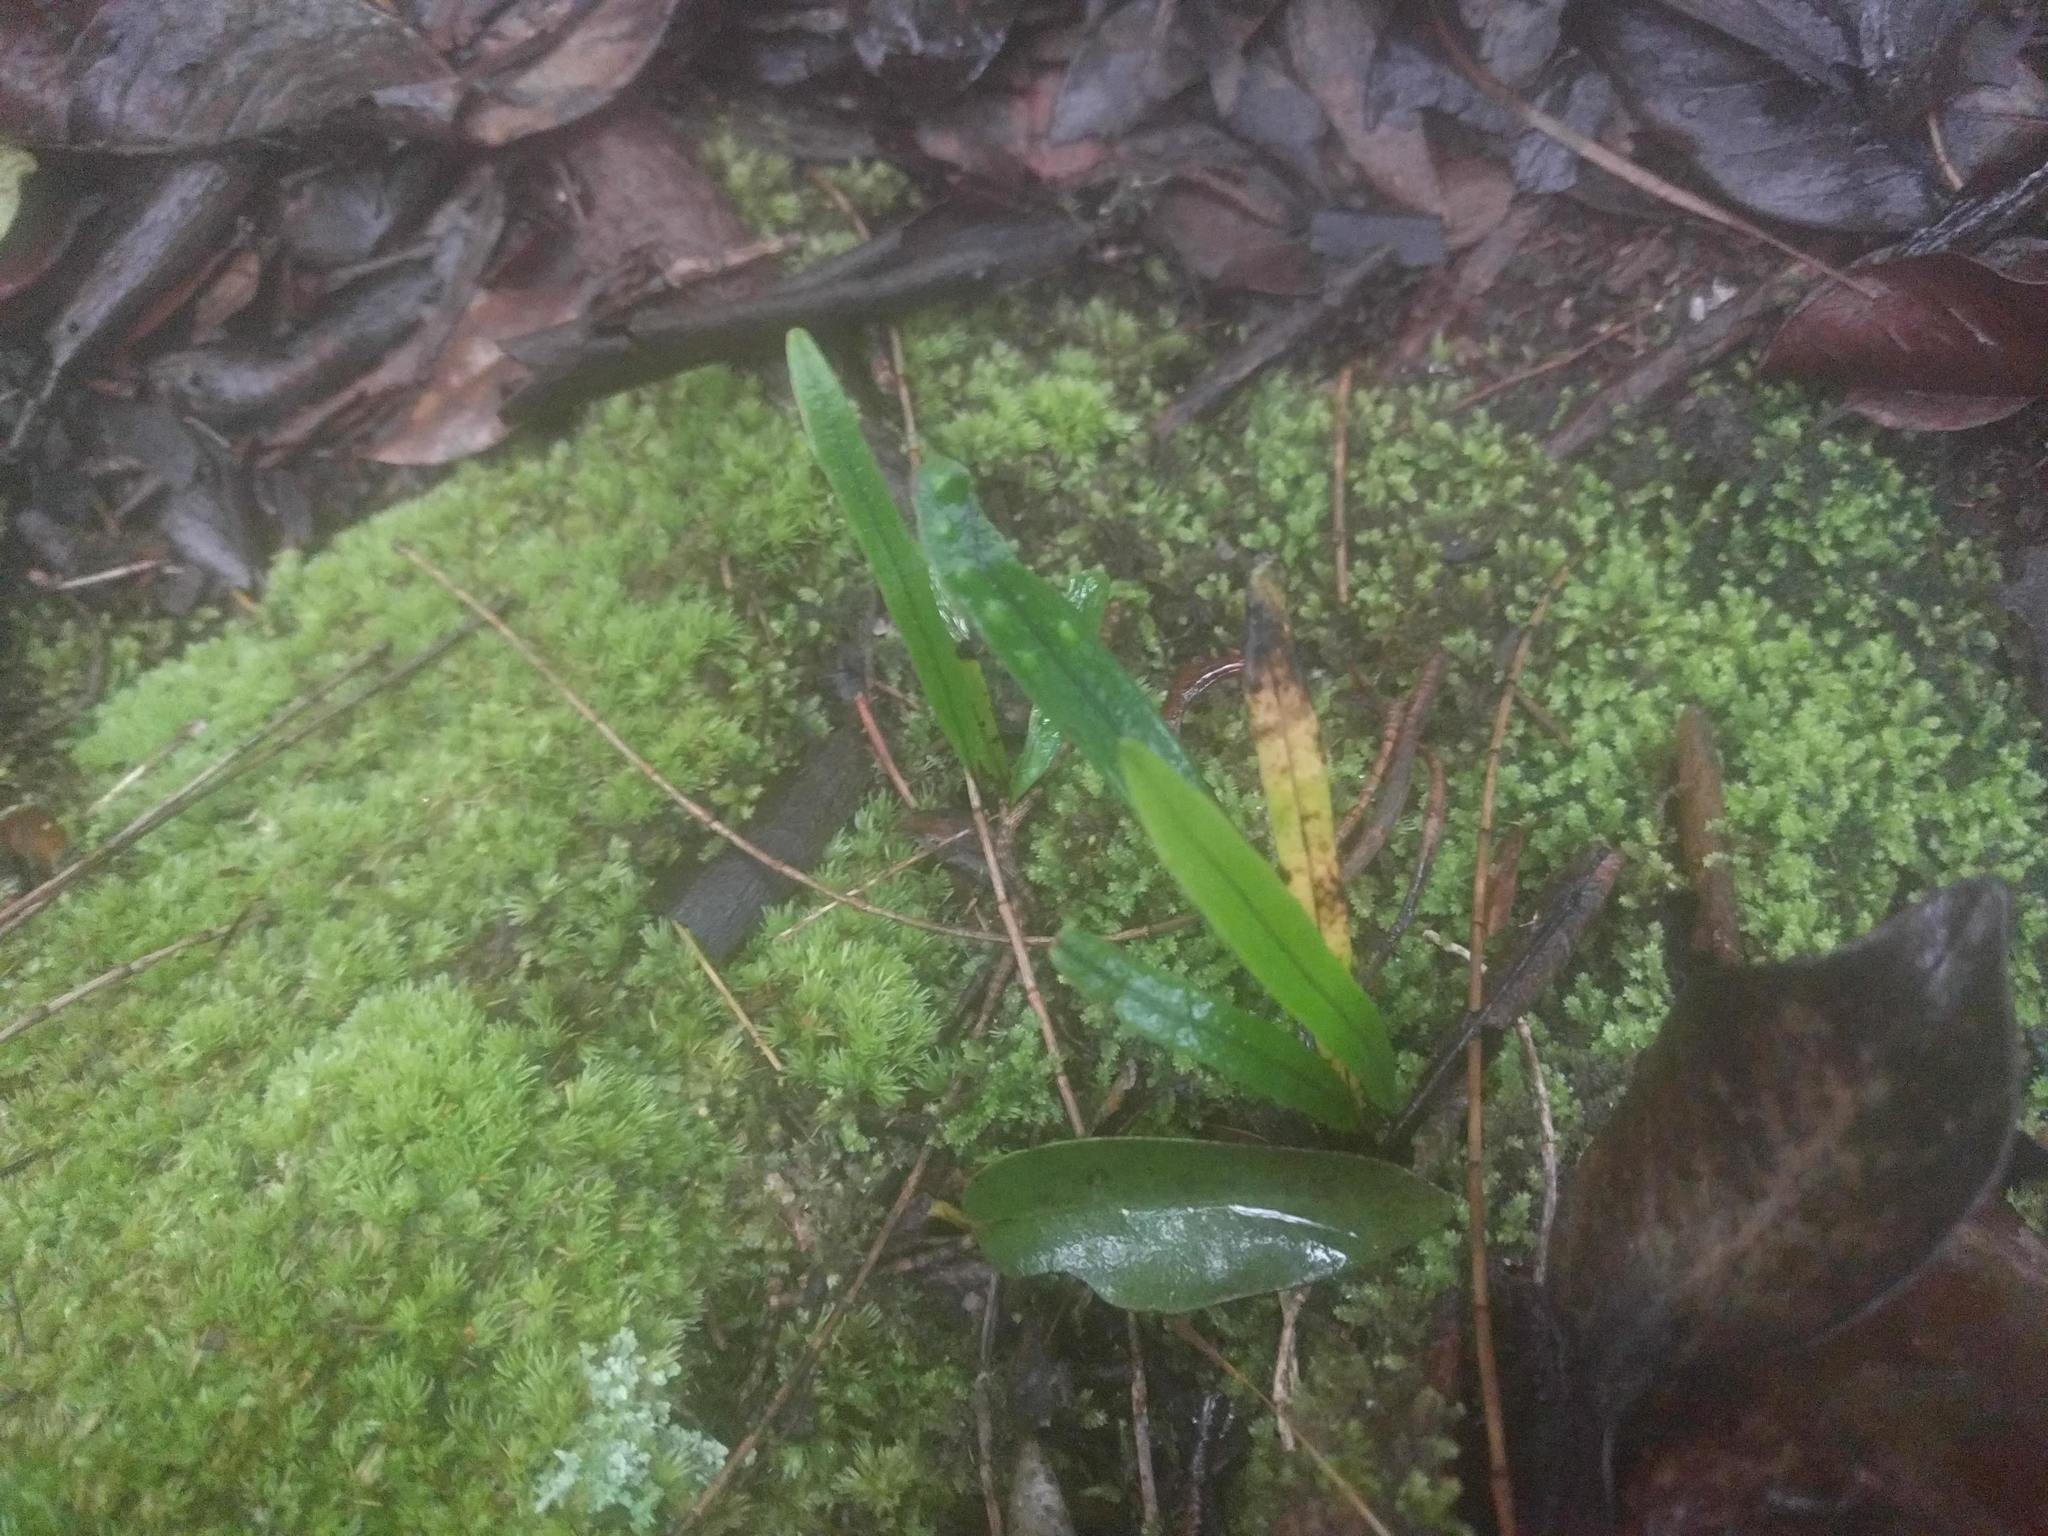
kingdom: Plantae
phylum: Tracheophyta
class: Polypodiopsida
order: Polypodiales
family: Polypodiaceae
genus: Lepisorus
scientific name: Lepisorus thunbergianus
